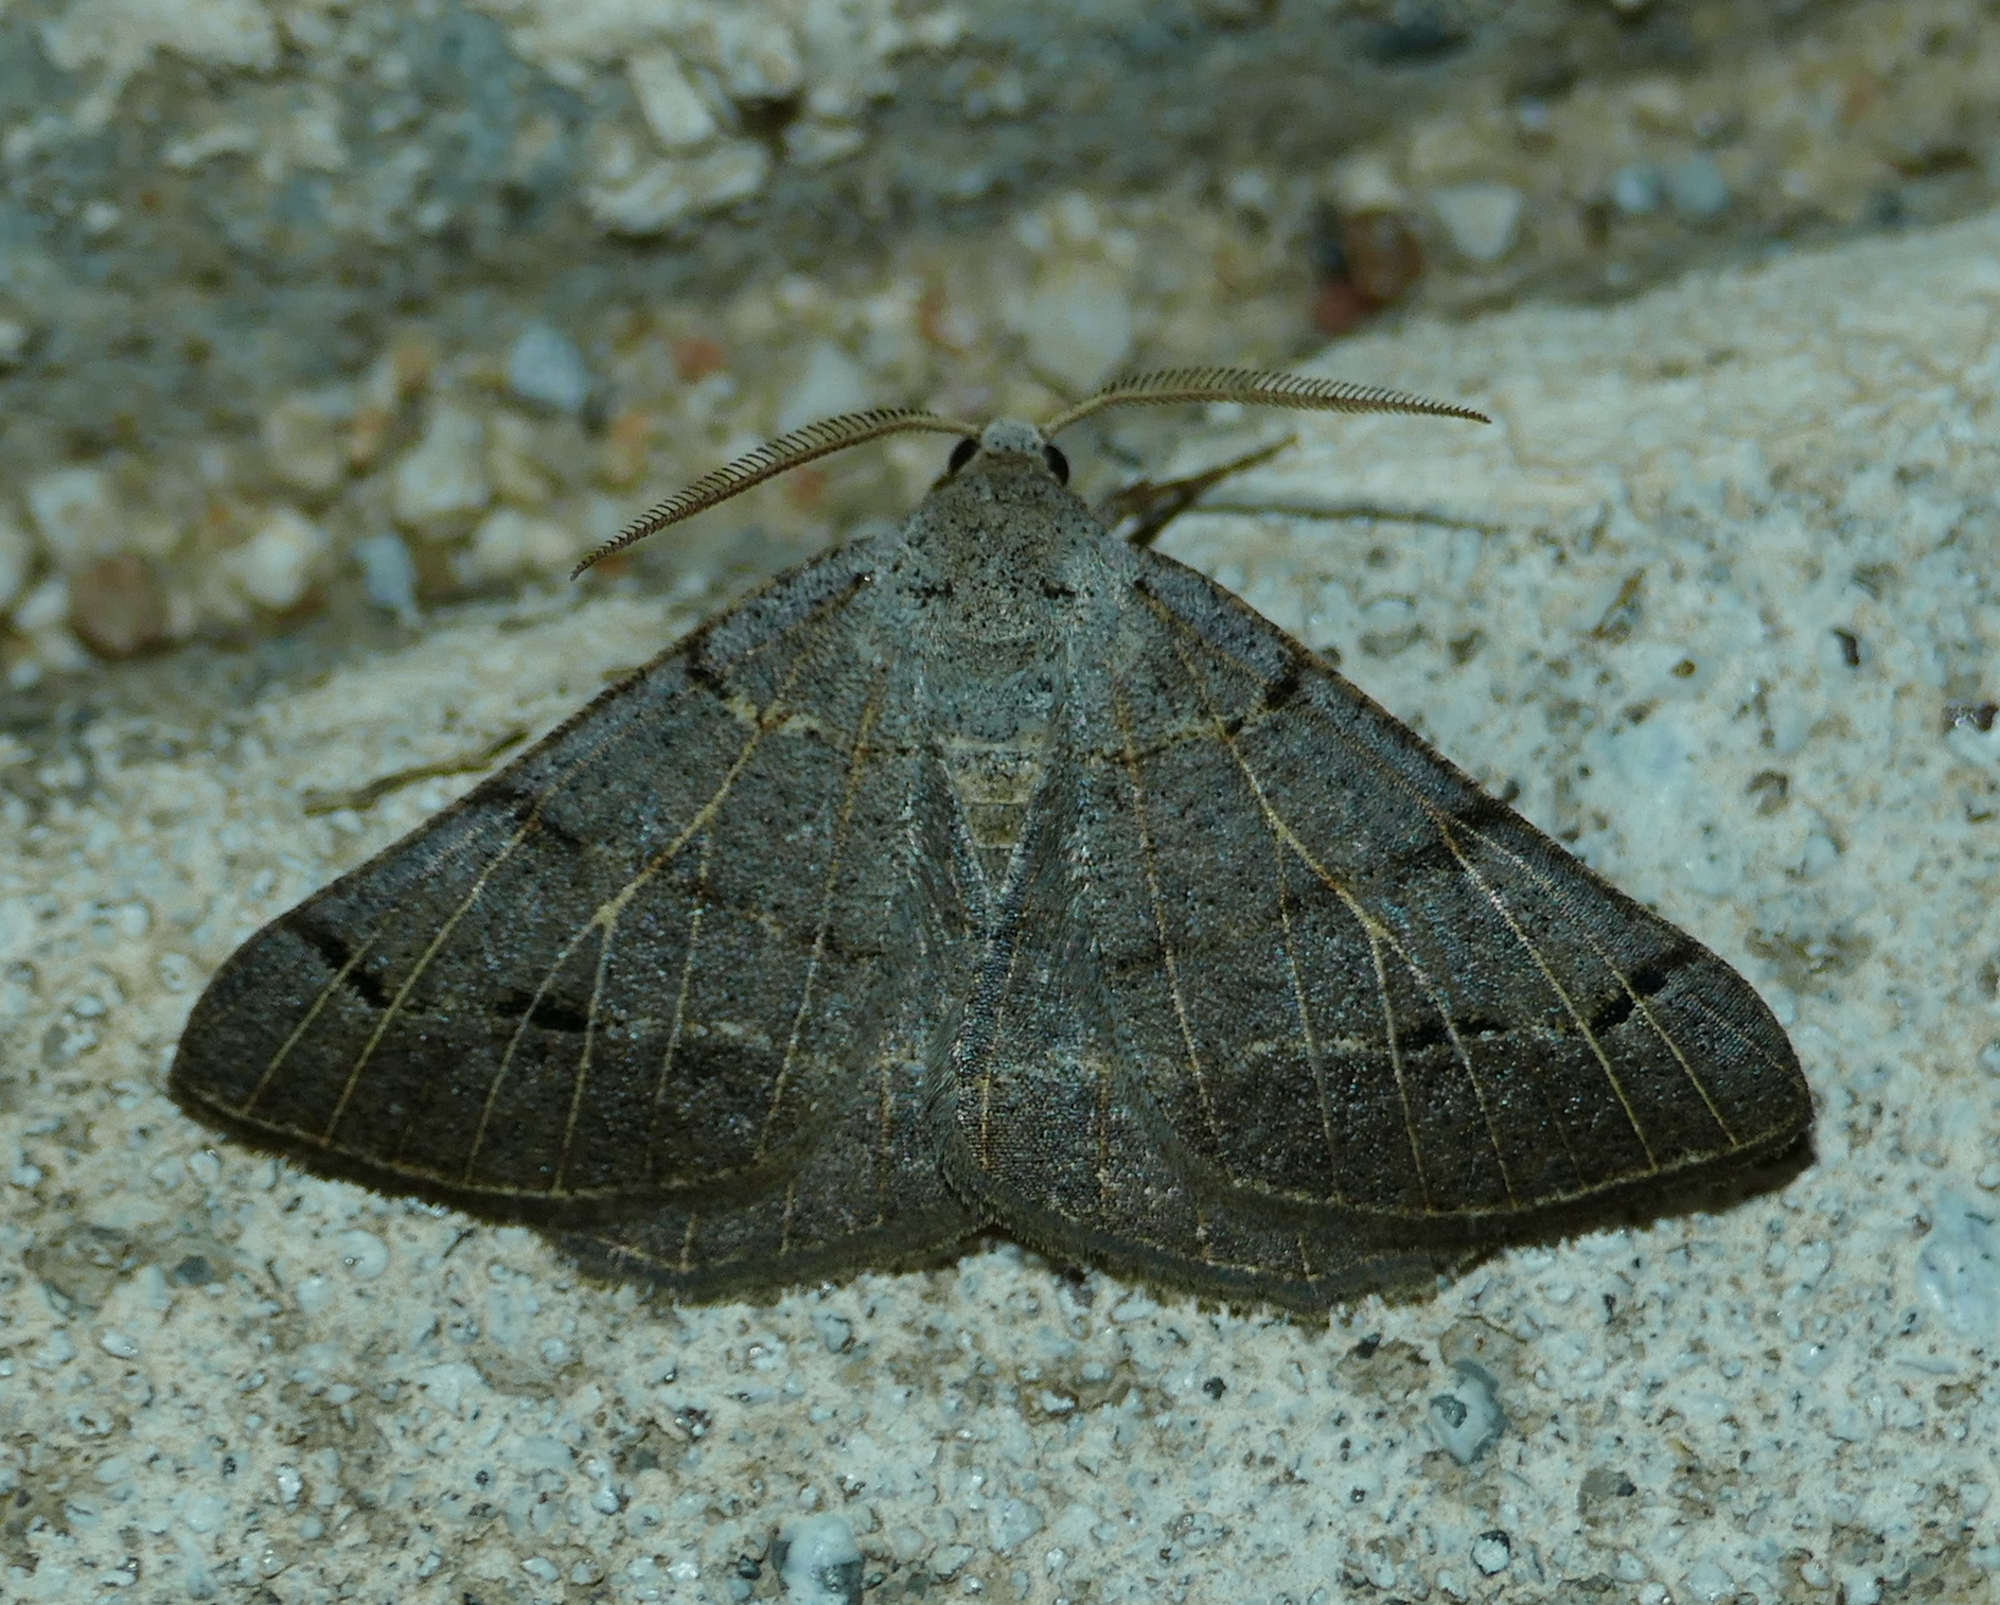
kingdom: Animalia
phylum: Arthropoda
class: Insecta
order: Lepidoptera
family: Geometridae
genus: Isturgia
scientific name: Isturgia dislocaria
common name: Pale-viened enconista
